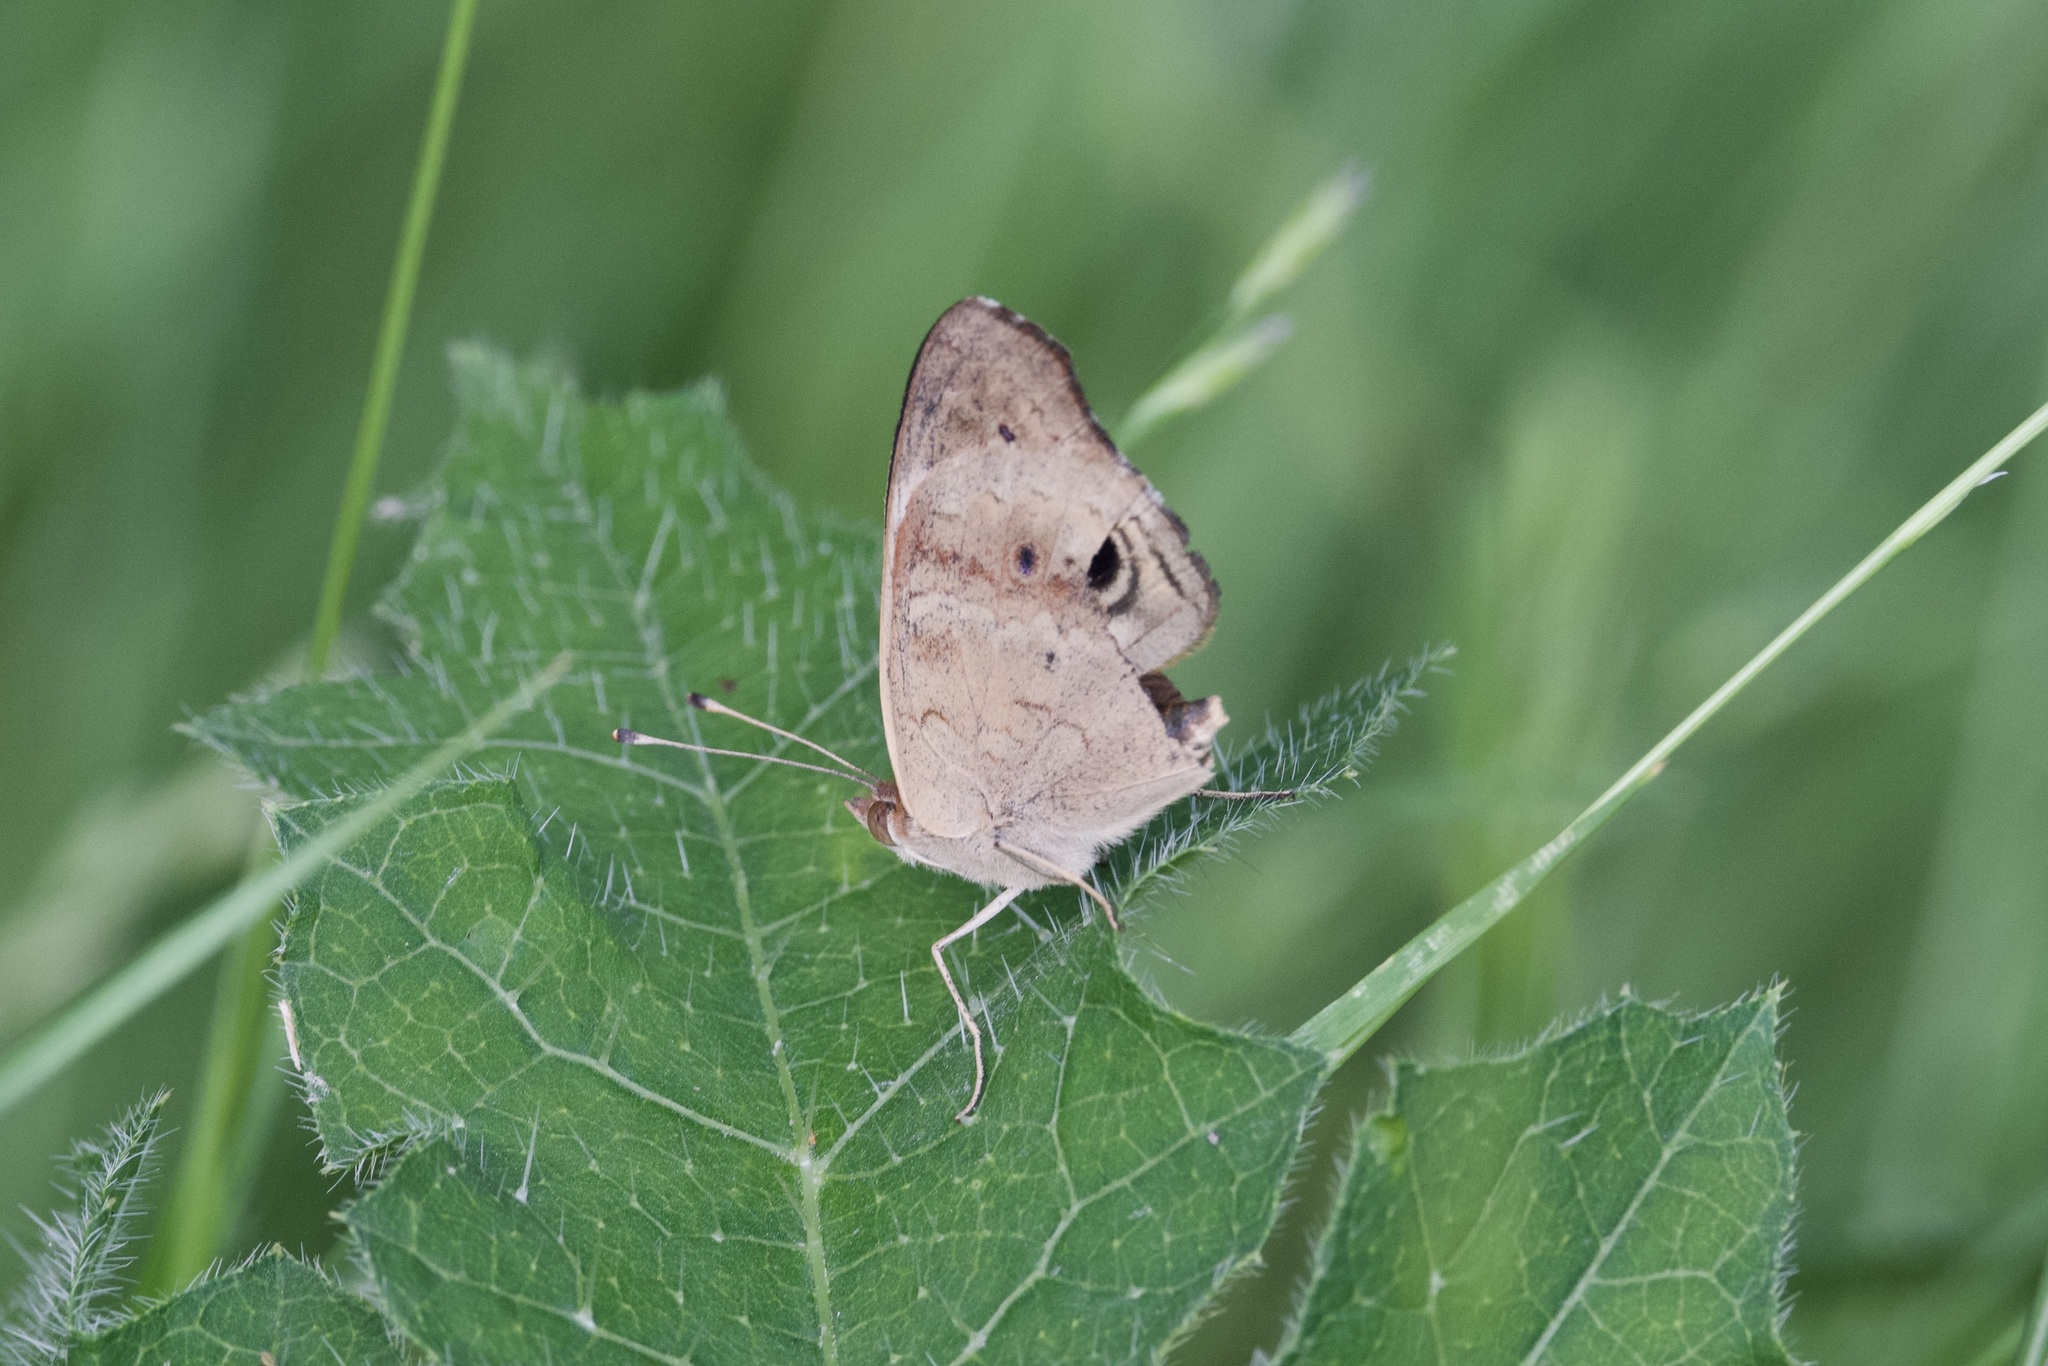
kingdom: Animalia
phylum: Arthropoda
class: Insecta
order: Lepidoptera
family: Nymphalidae
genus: Junonia
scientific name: Junonia coenia
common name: Common buckeye
